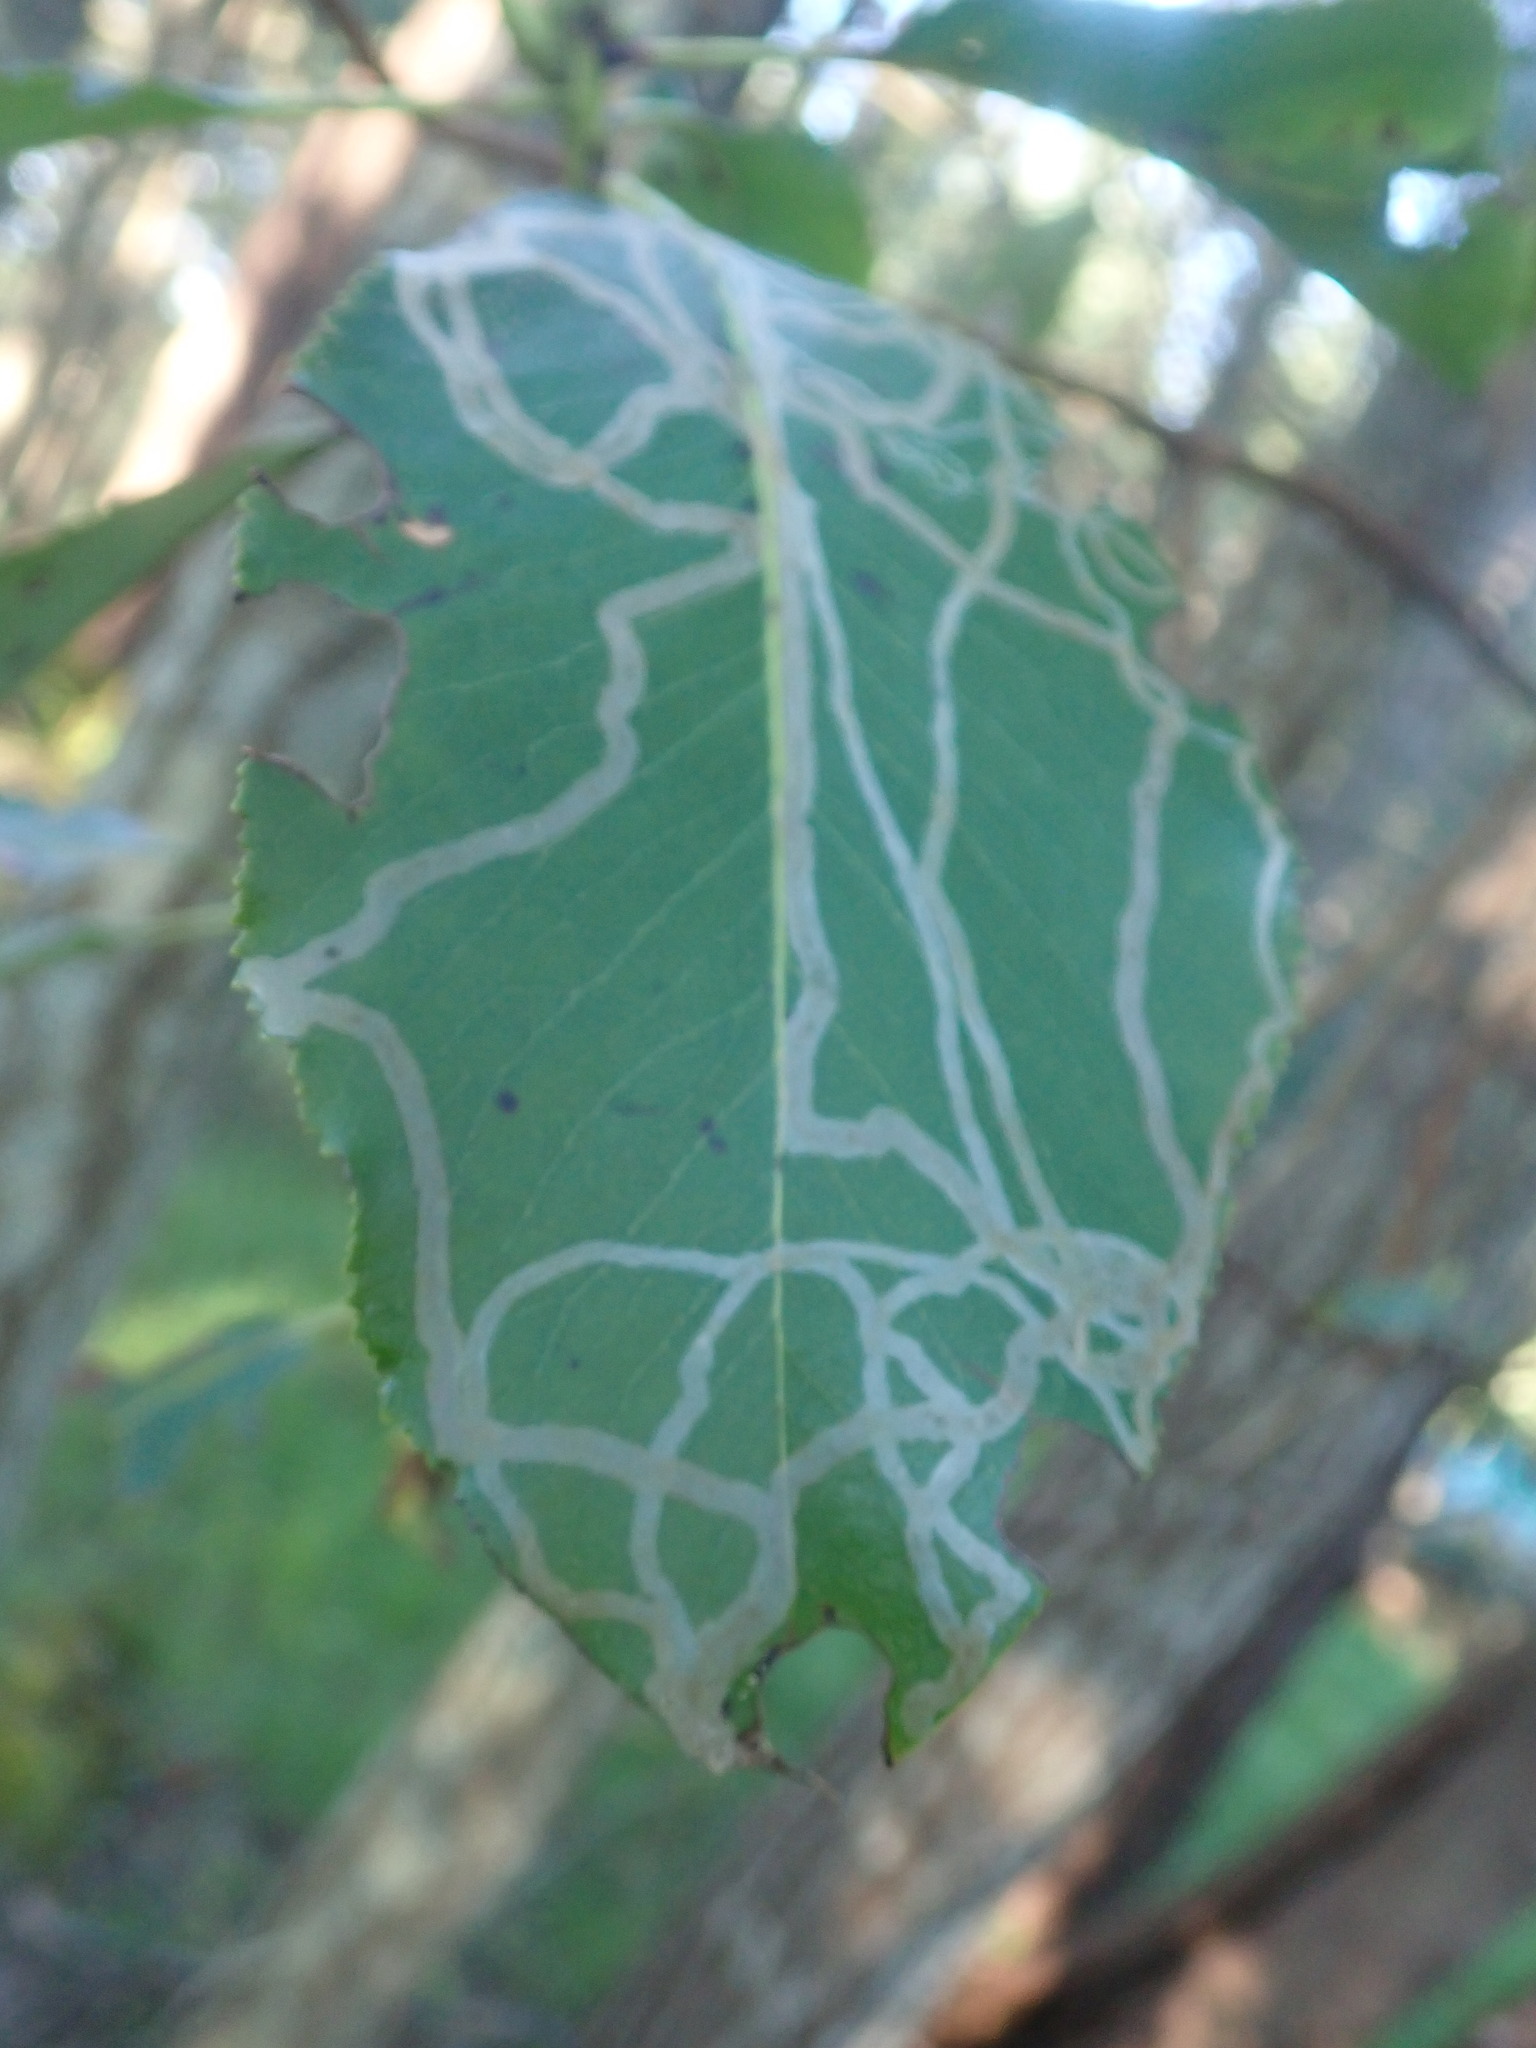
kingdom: Animalia
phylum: Arthropoda
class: Insecta
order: Lepidoptera
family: Gracillariidae
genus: Marmara
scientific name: Marmara arbutiella
